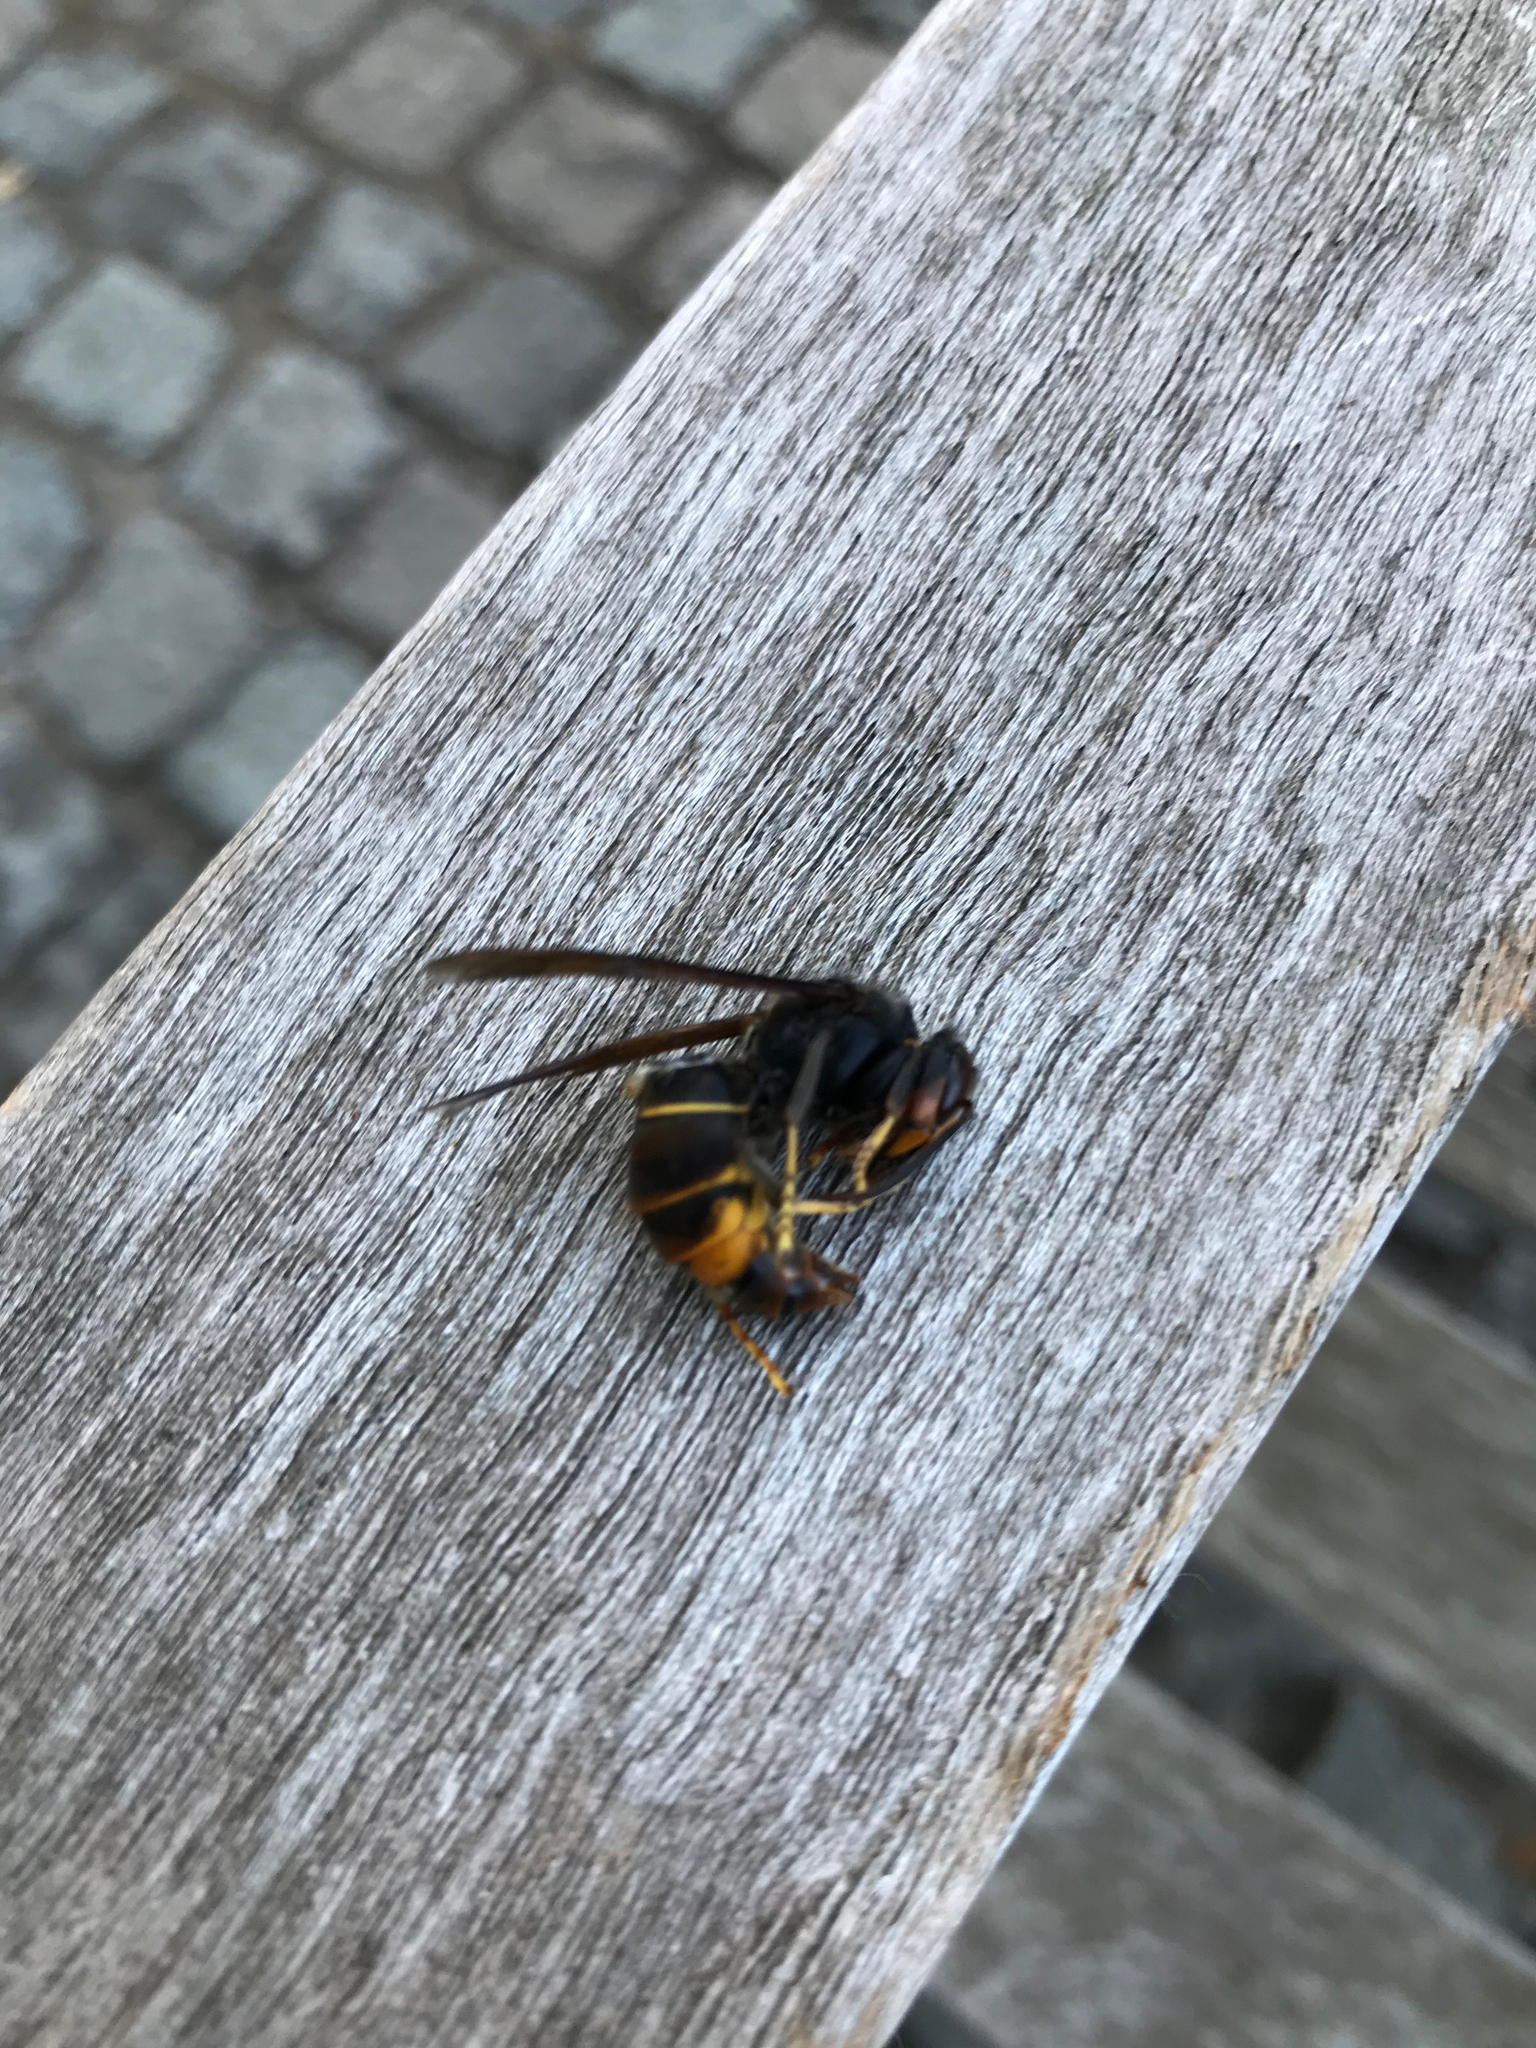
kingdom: Animalia
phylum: Arthropoda
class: Insecta
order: Hymenoptera
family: Vespidae
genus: Vespa
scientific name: Vespa velutina
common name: Asian hornet
